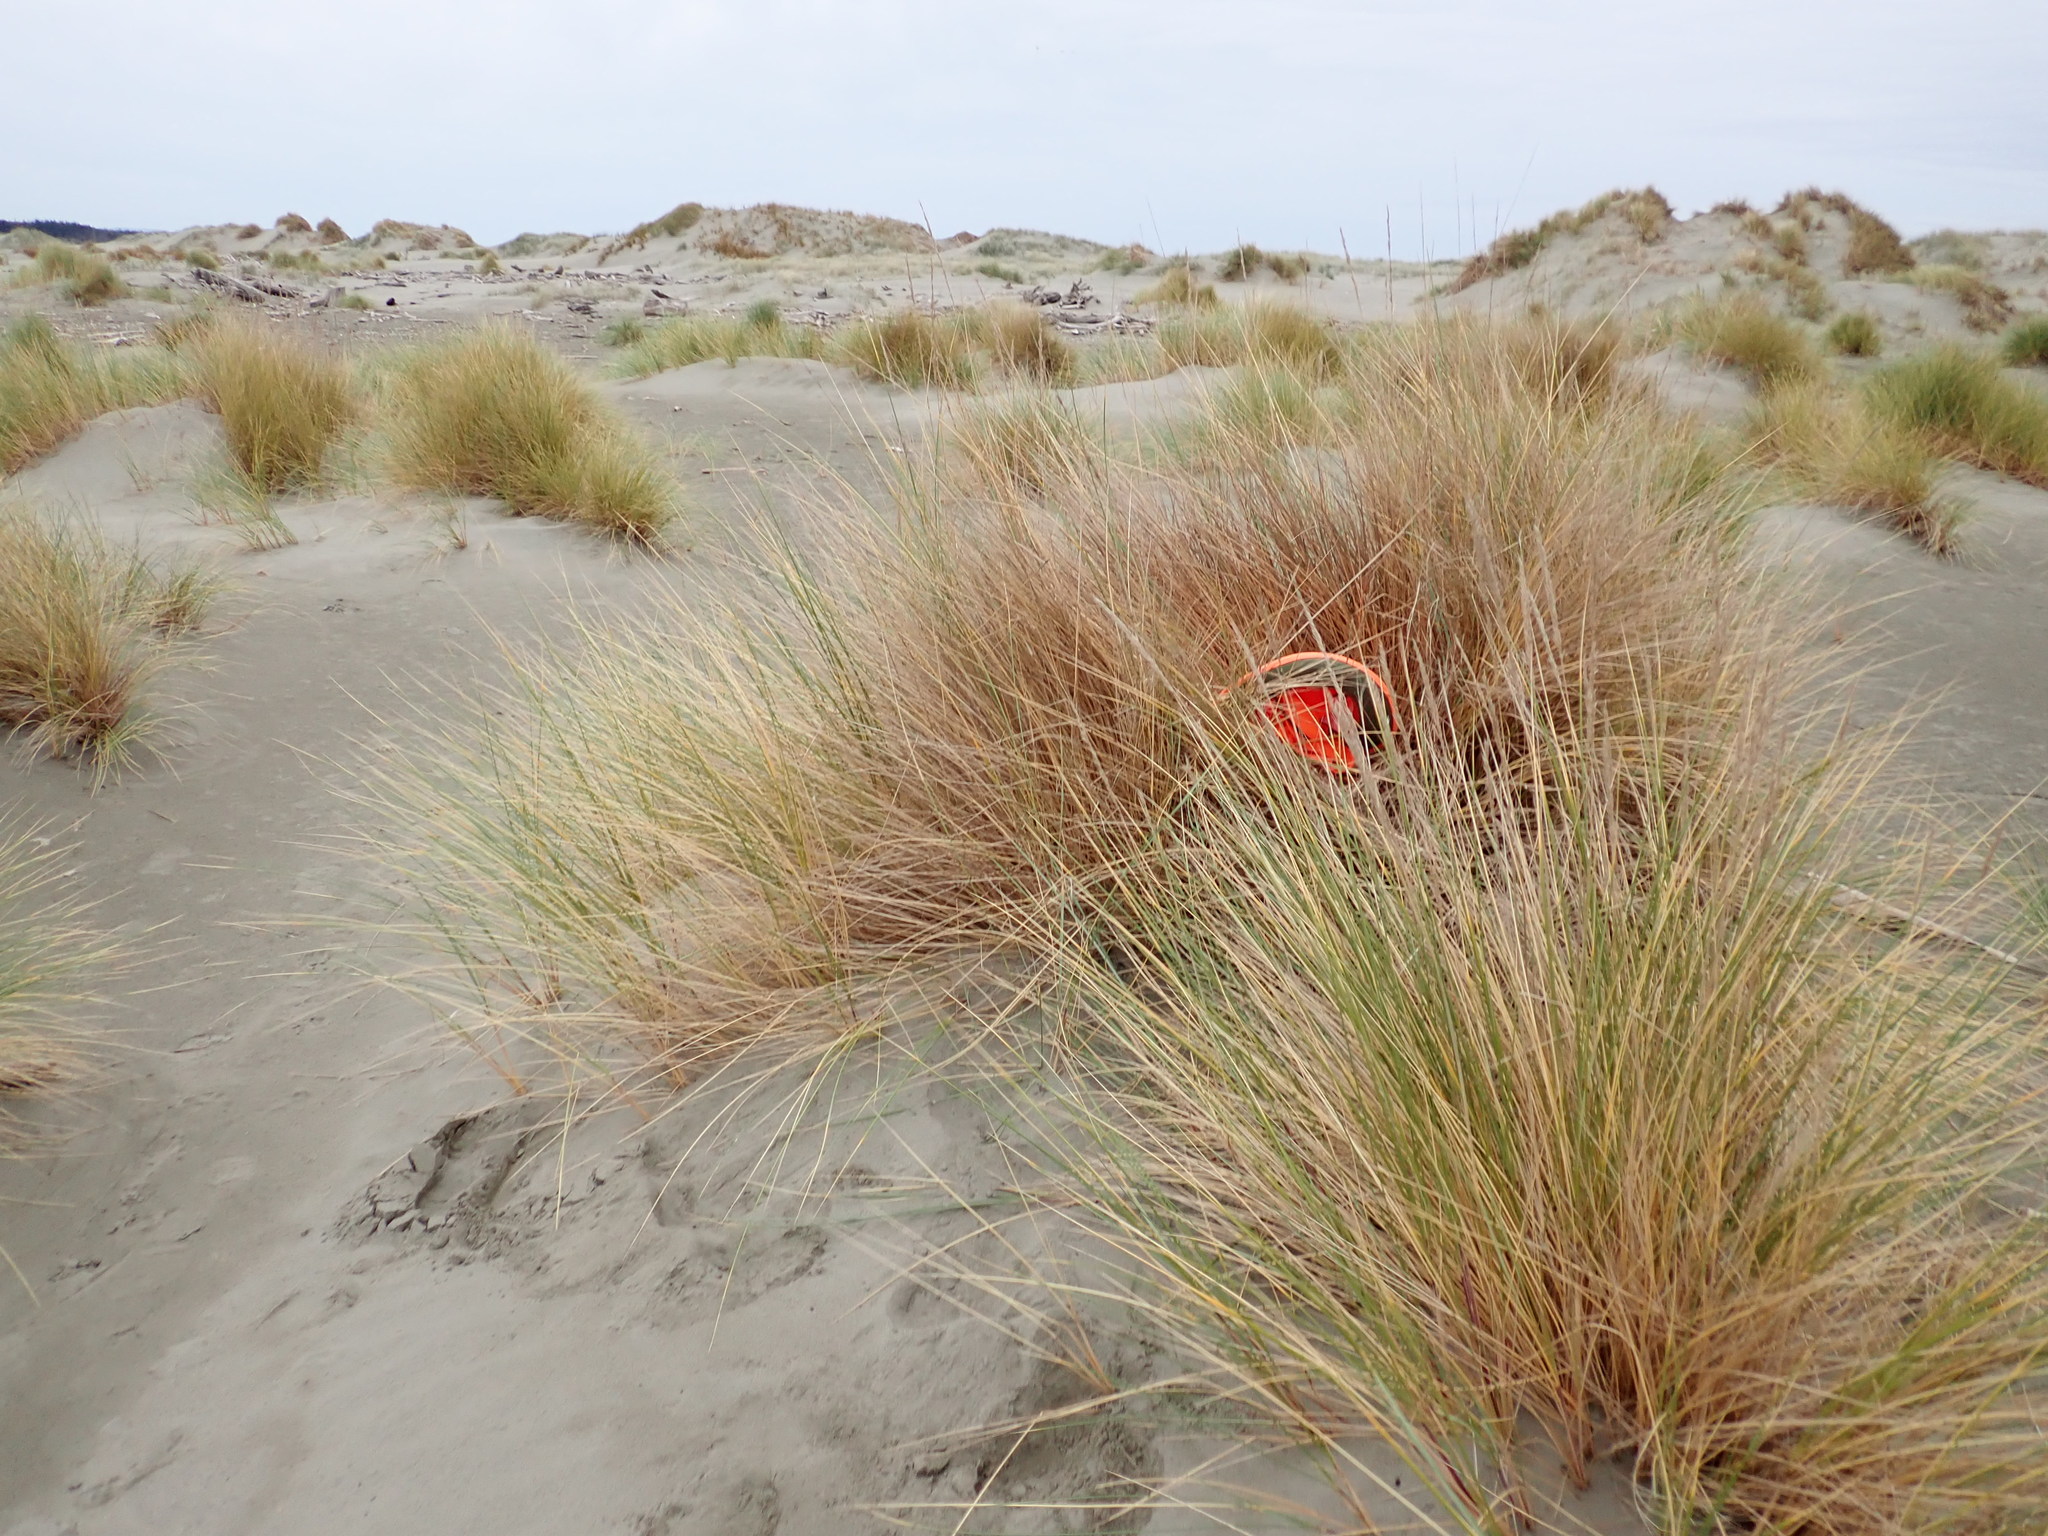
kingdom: Animalia
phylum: Arthropoda
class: Arachnida
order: Araneae
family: Thomisidae
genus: Sidymella
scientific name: Sidymella trapezia
